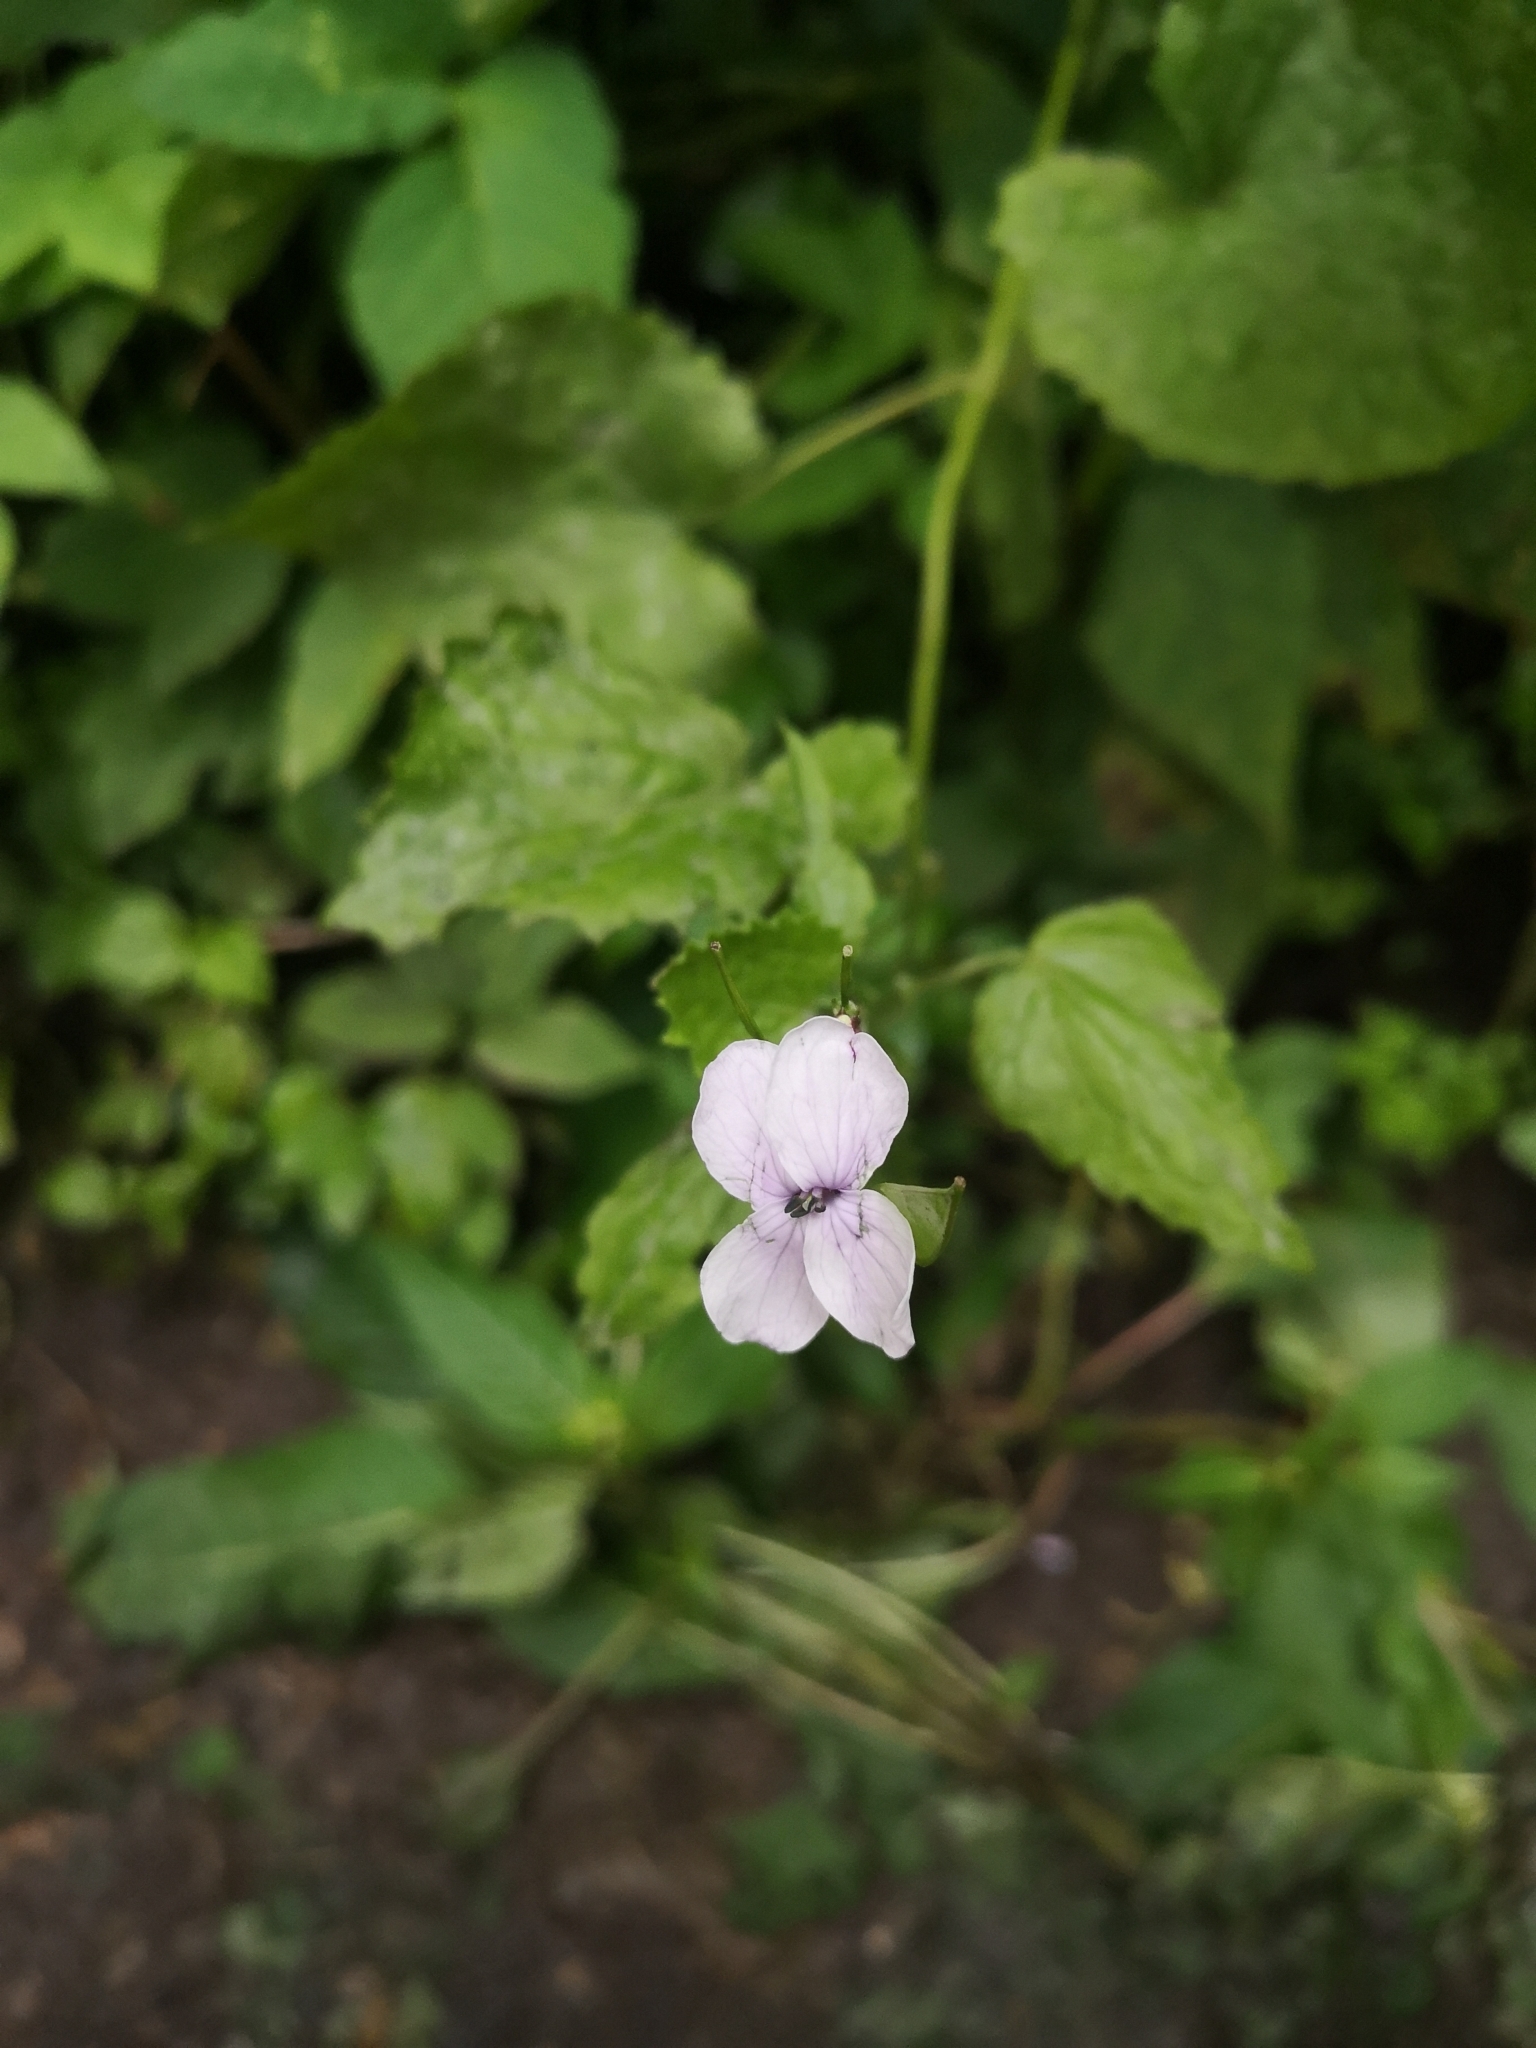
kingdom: Plantae
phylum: Tracheophyta
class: Magnoliopsida
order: Brassicales
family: Brassicaceae
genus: Lunaria
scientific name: Lunaria rediviva
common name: Perennial honesty
